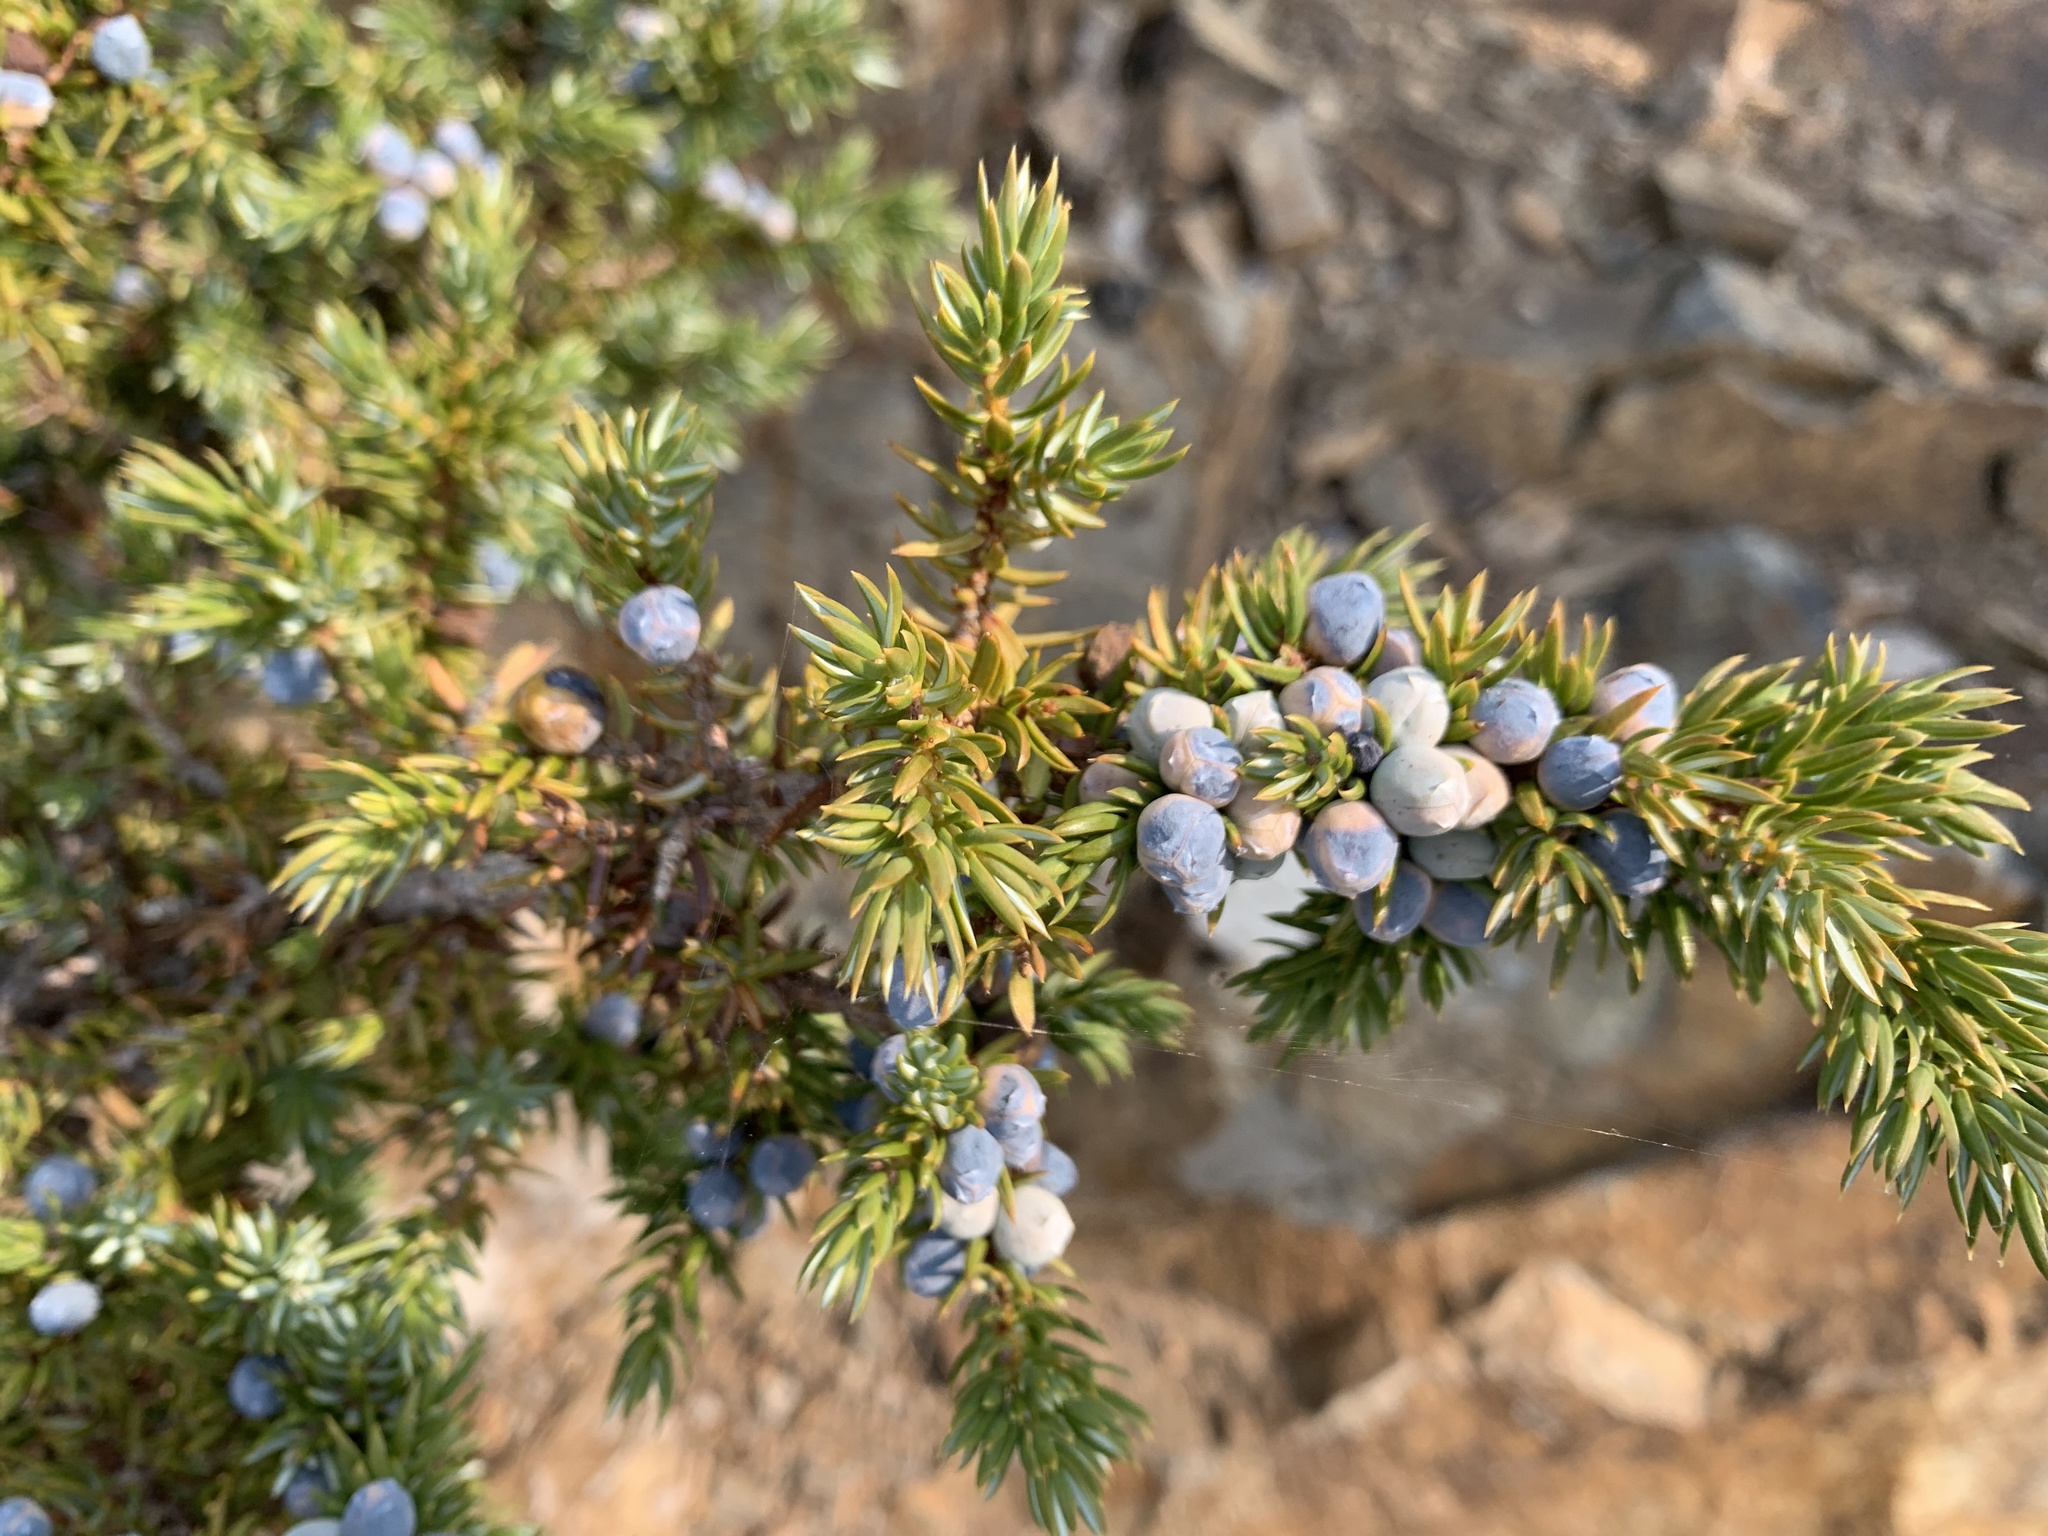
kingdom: Plantae
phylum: Tracheophyta
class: Pinopsida
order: Pinales
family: Cupressaceae
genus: Juniperus
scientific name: Juniperus communis
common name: Common juniper
